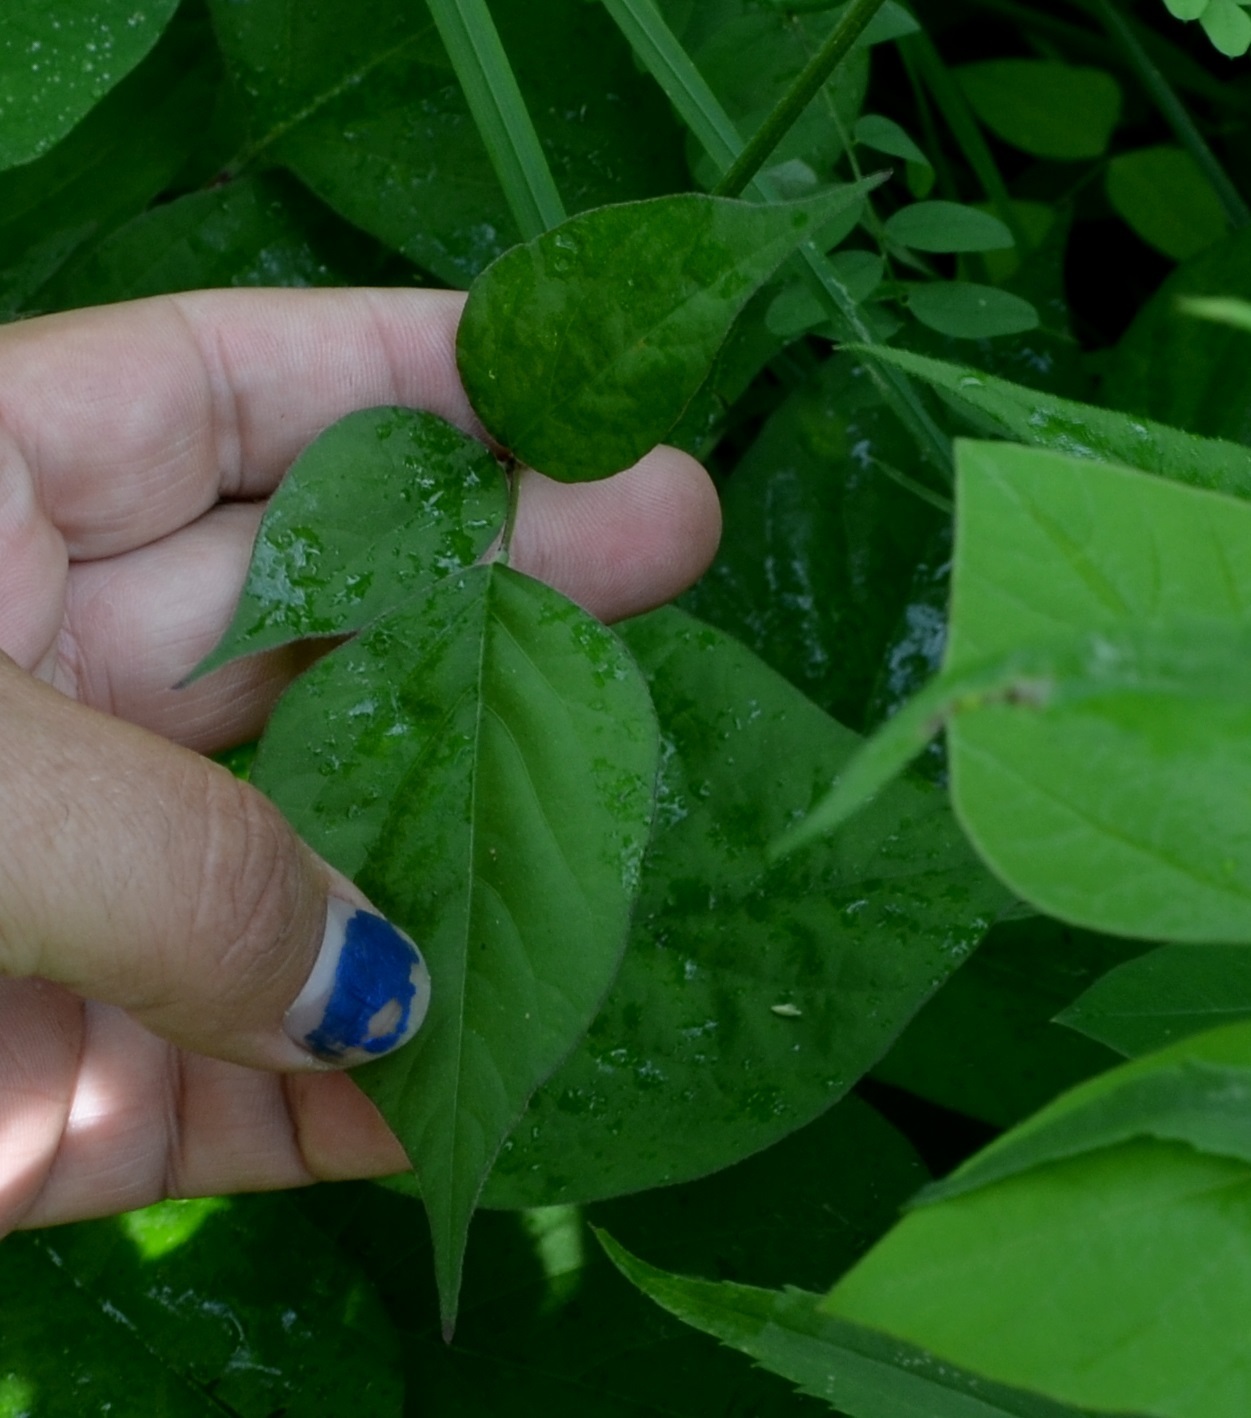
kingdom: Plantae
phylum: Tracheophyta
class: Magnoliopsida
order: Fabales
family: Fabaceae
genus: Hylodesmum
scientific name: Hylodesmum glutinosum
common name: Clustered-leaved tick-trefoil
